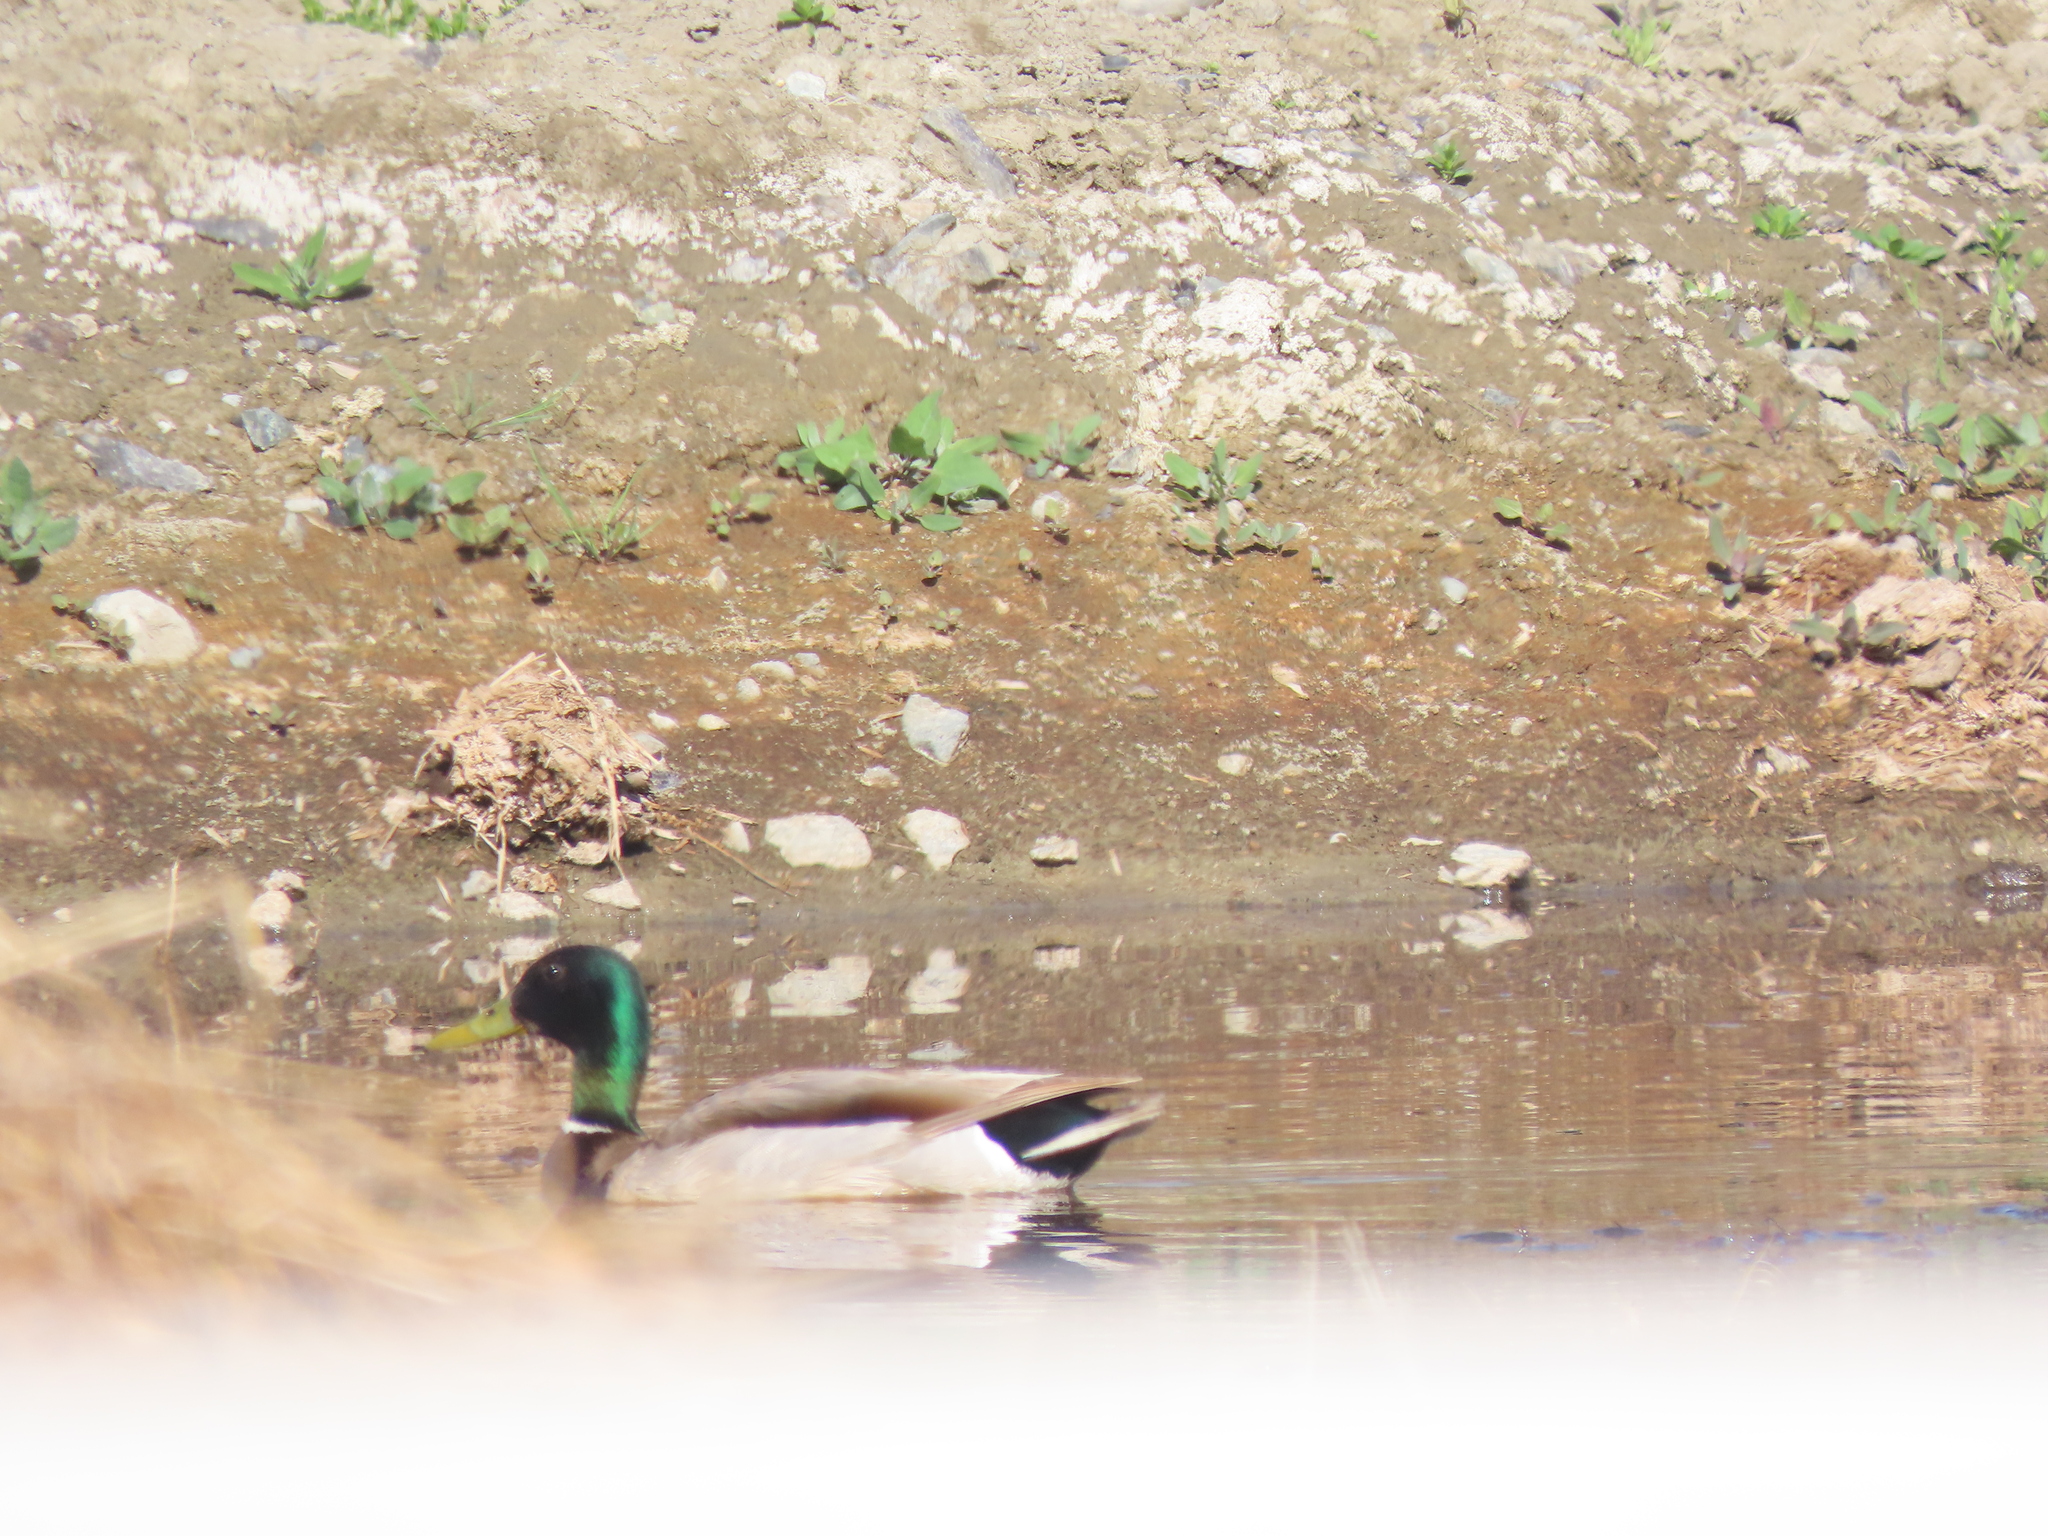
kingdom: Animalia
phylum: Chordata
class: Aves
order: Anseriformes
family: Anatidae
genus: Anas
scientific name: Anas platyrhynchos
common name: Mallard
